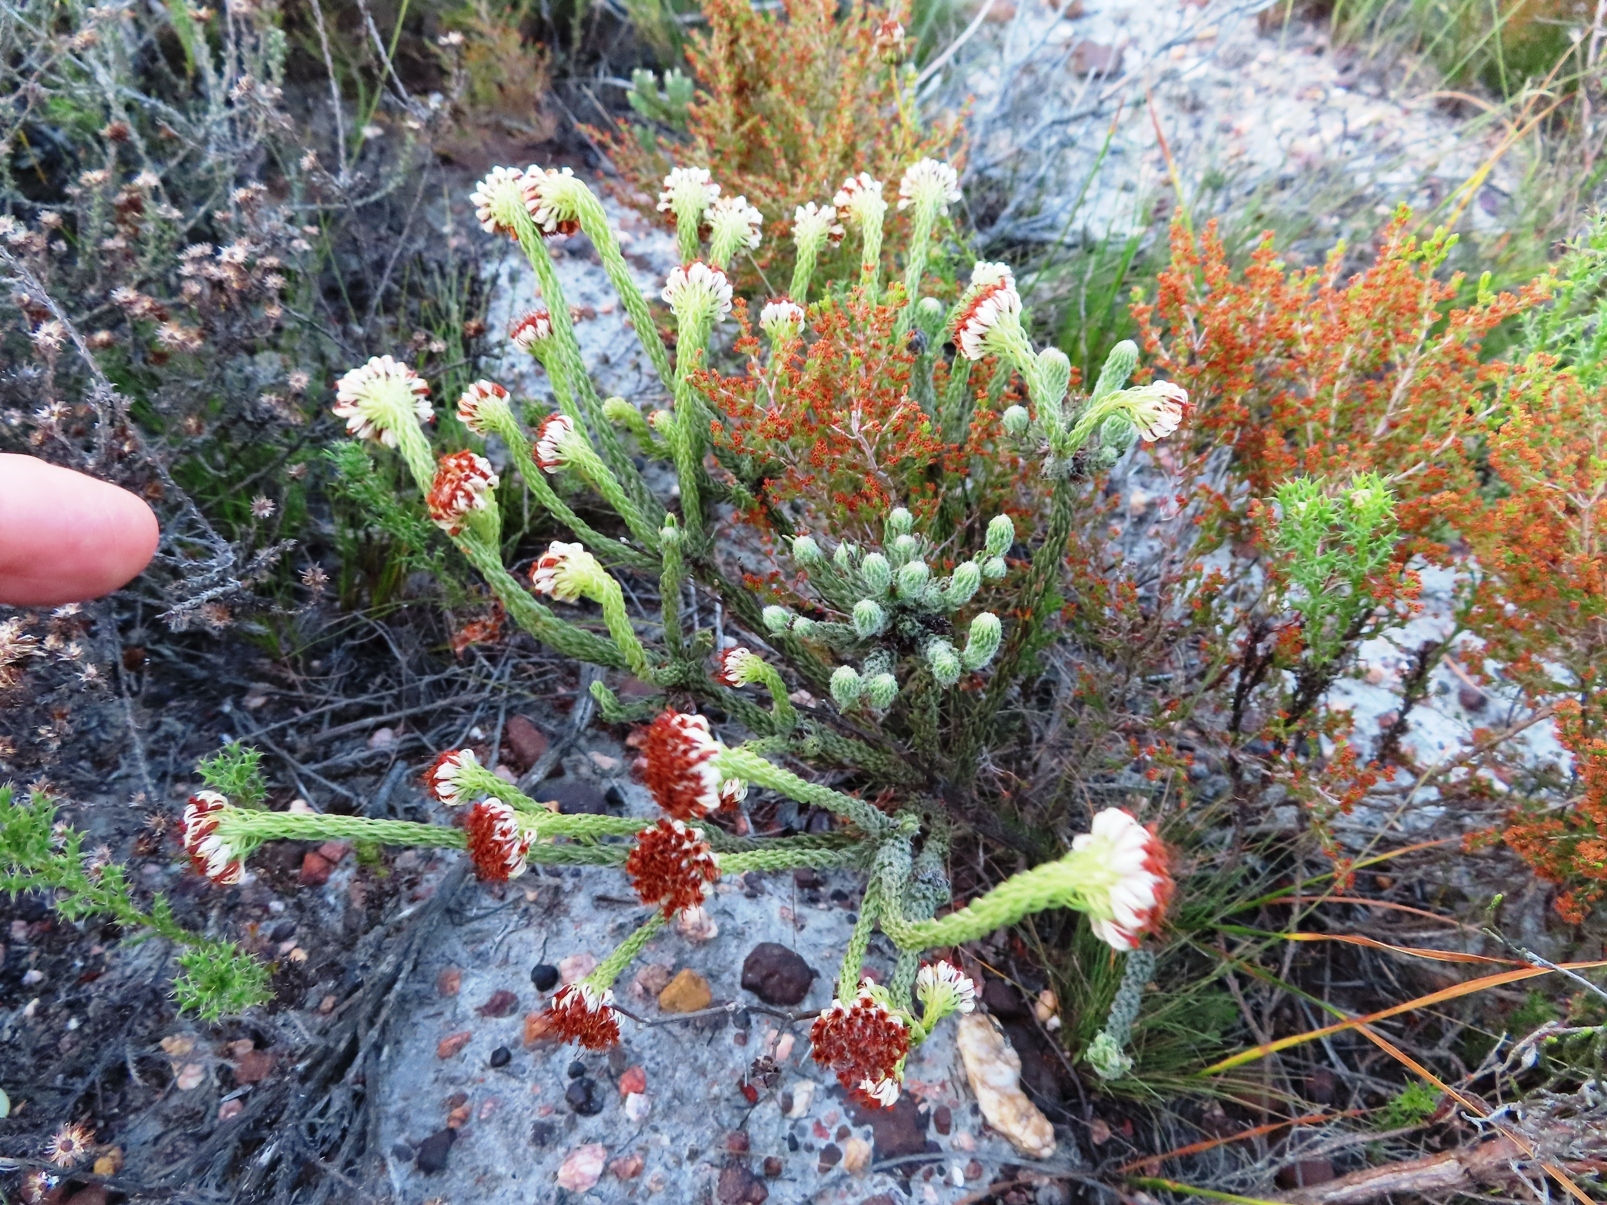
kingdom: Plantae
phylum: Tracheophyta
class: Magnoliopsida
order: Ericales
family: Ericaceae
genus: Erica
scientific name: Erica bruniifolia
